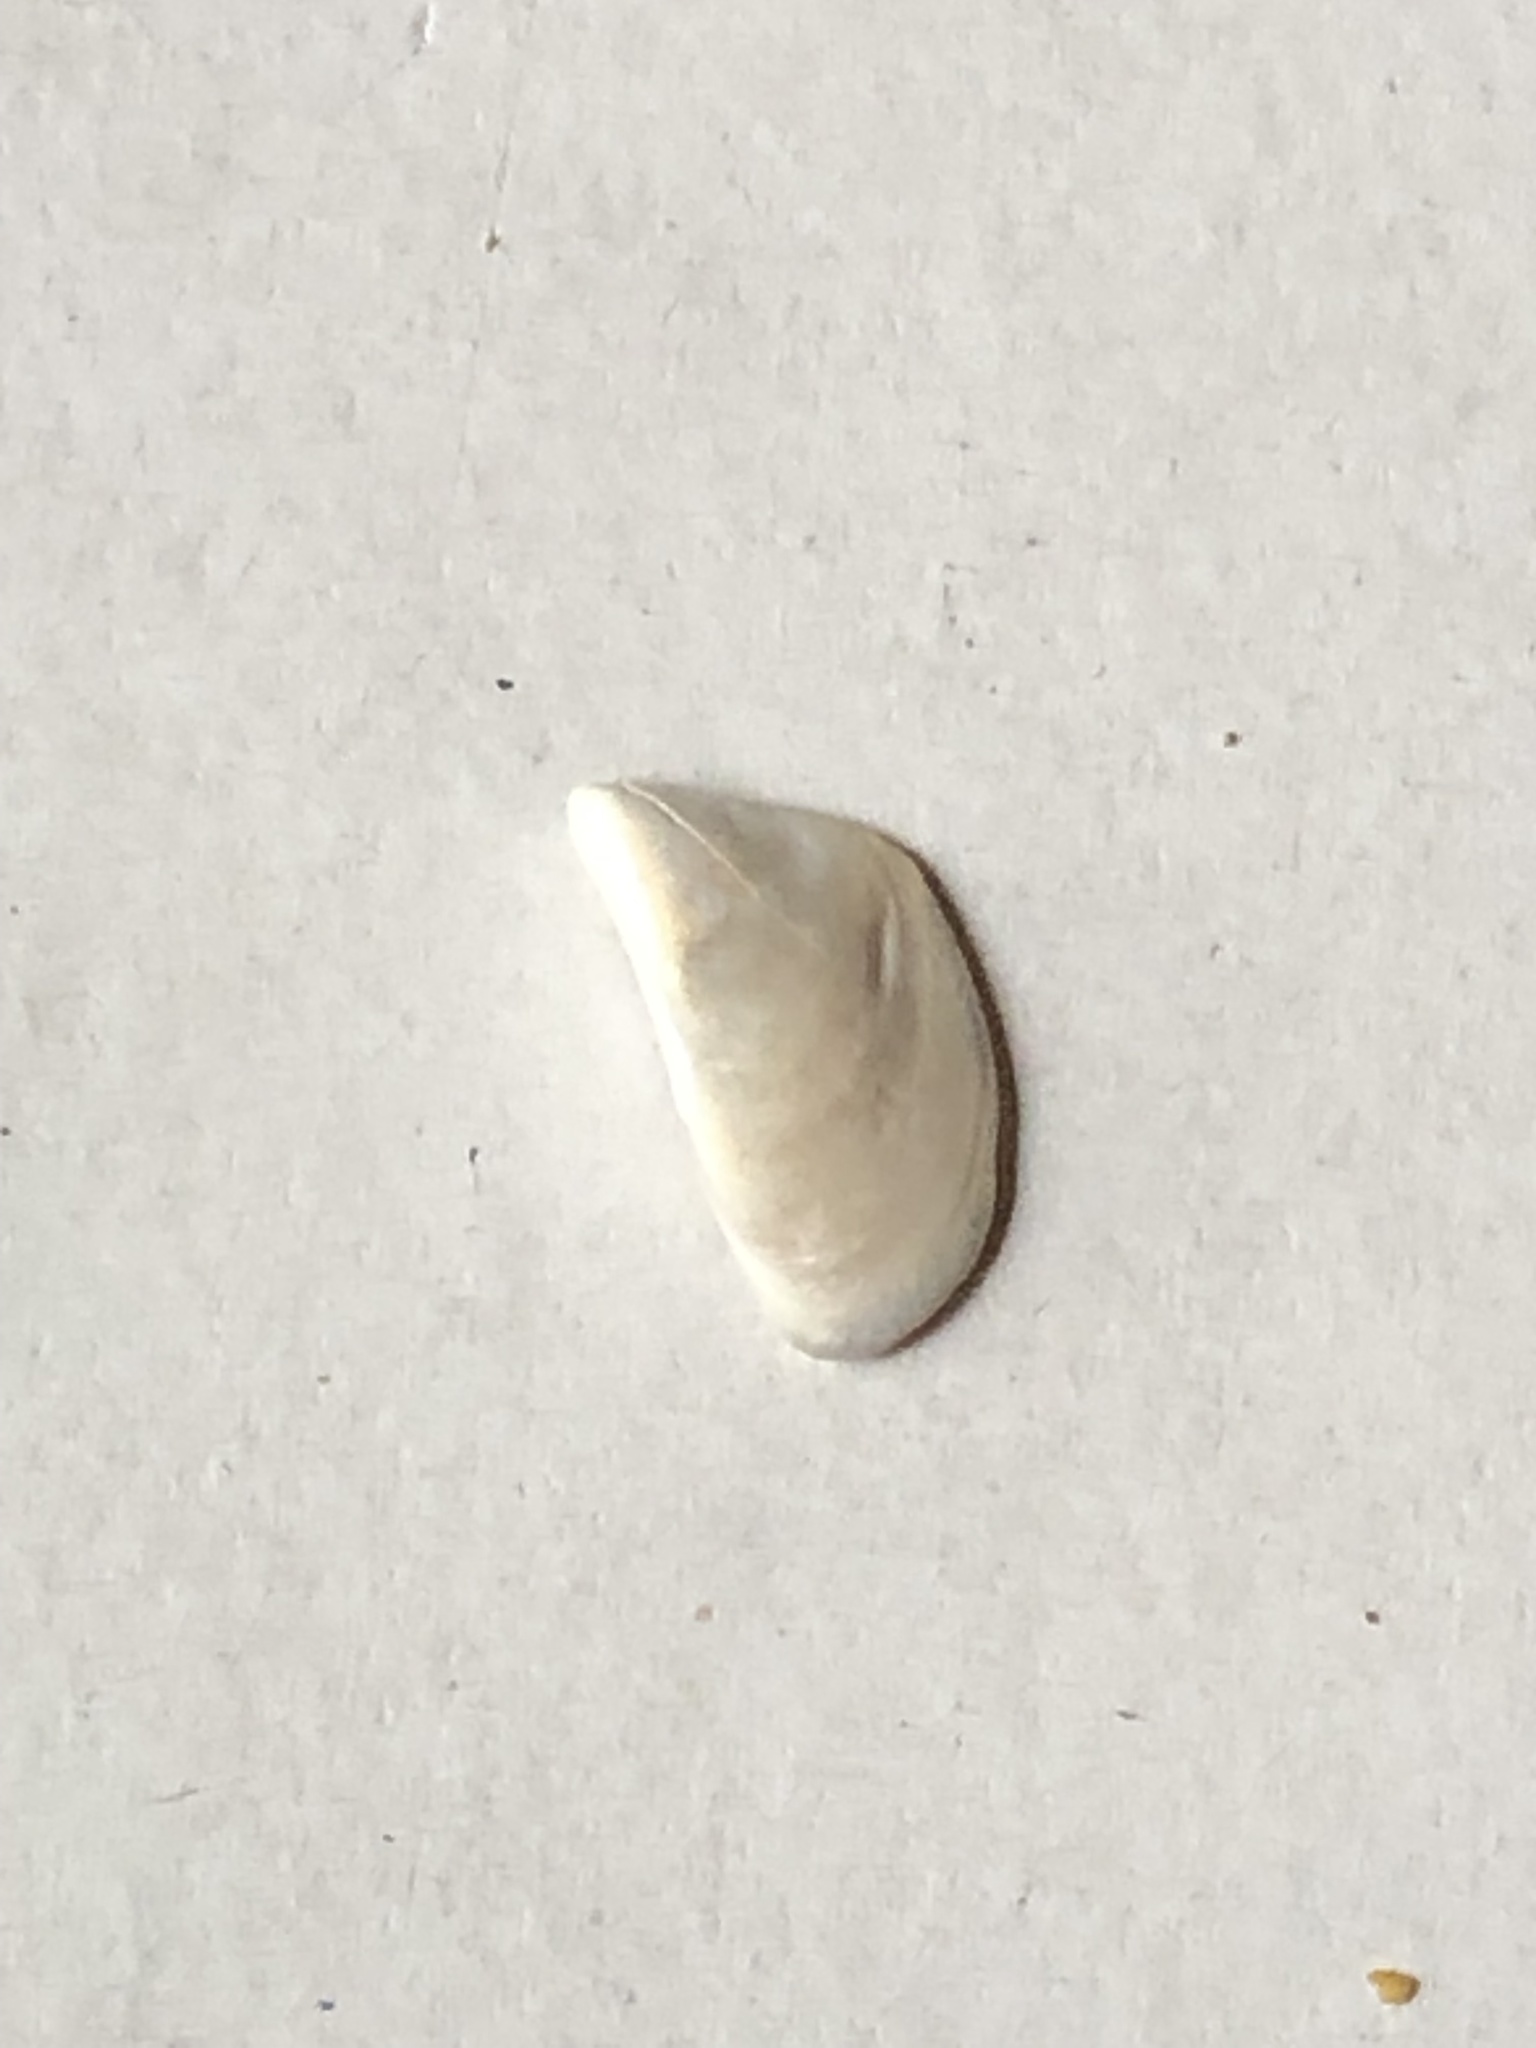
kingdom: Animalia
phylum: Mollusca
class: Bivalvia
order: Myida
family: Dreissenidae
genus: Dreissena
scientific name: Dreissena polymorpha
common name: Zebra mussel
